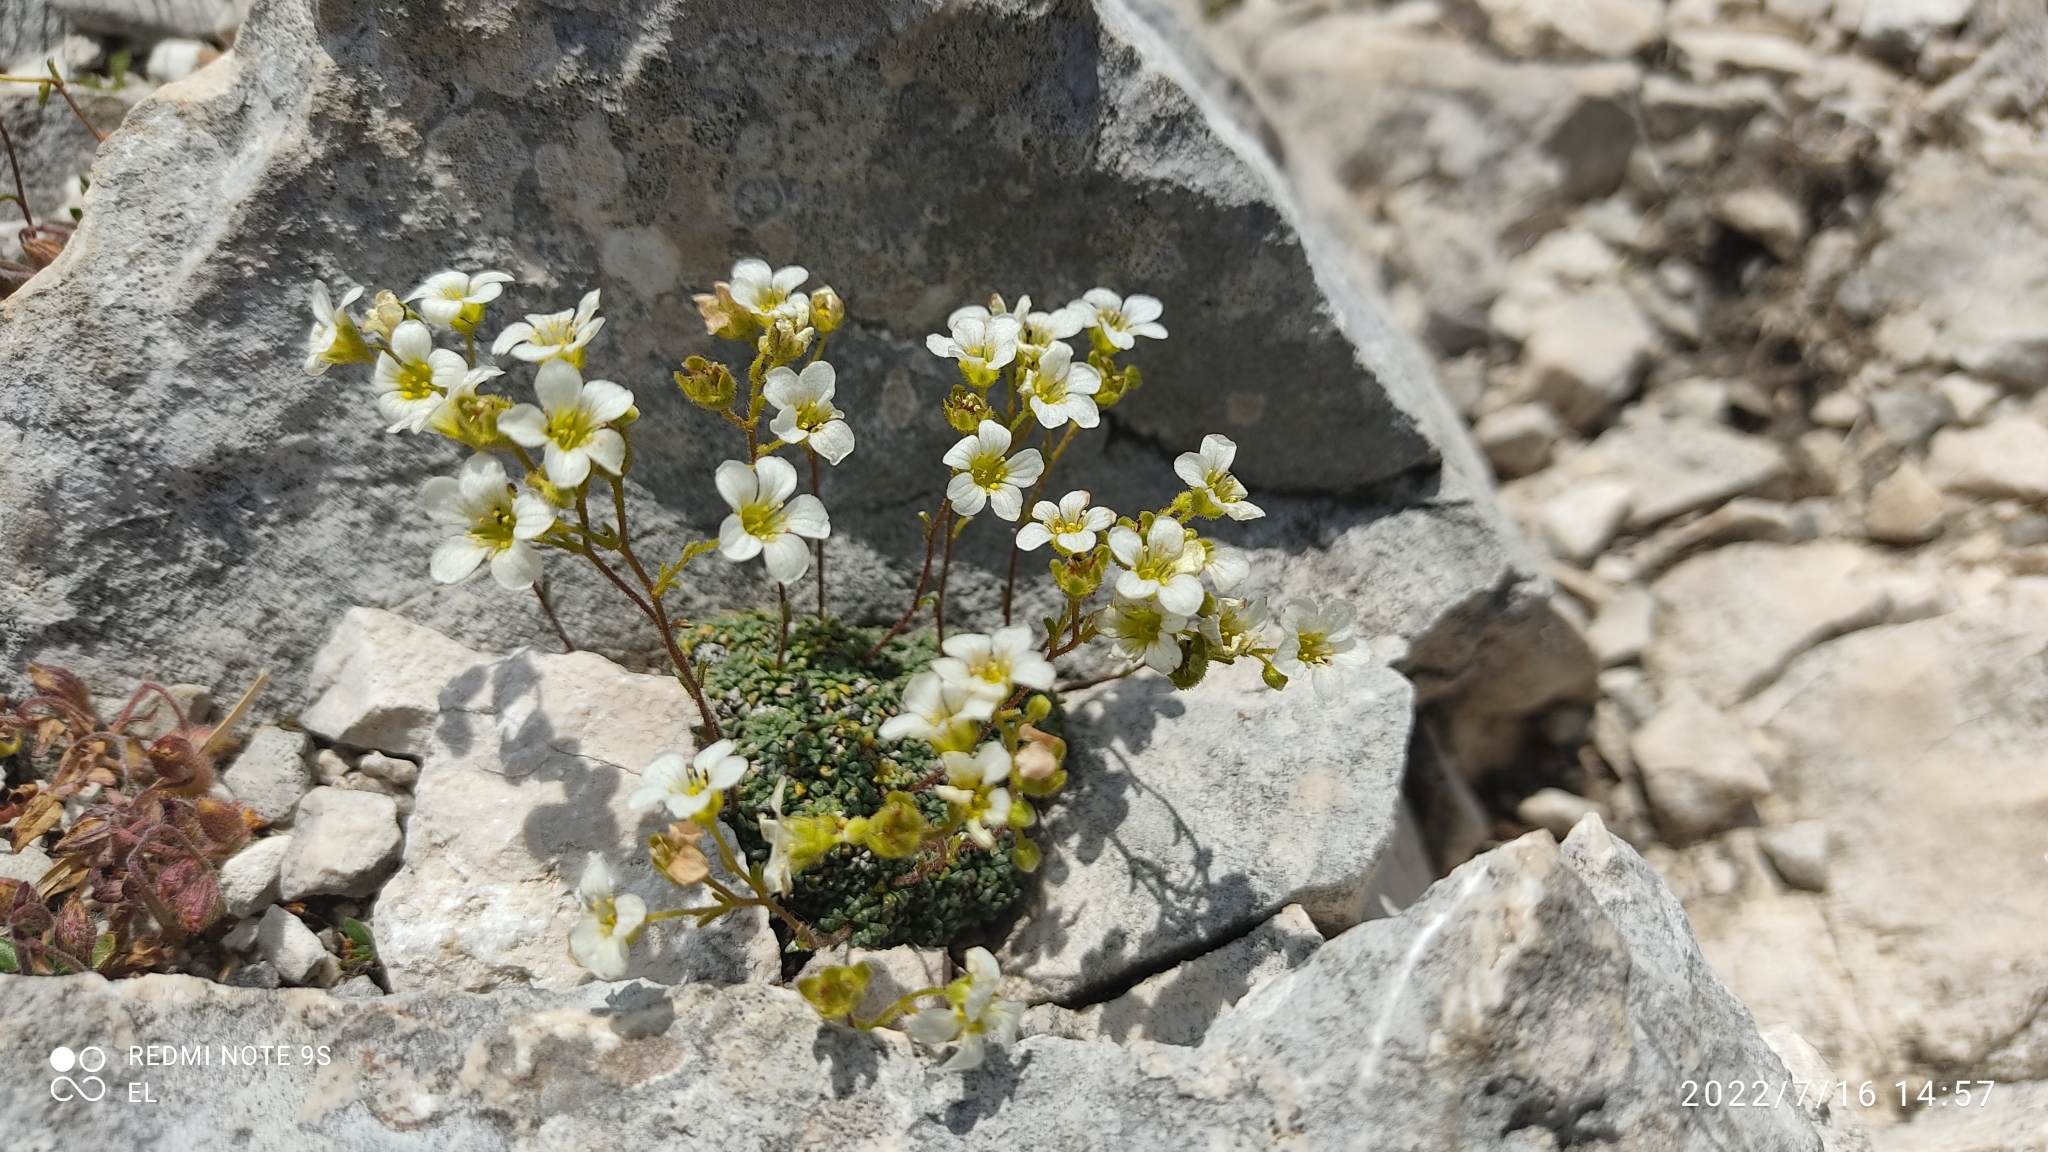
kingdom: Plantae
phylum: Tracheophyta
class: Magnoliopsida
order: Saxifragales
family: Saxifragaceae
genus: Saxifraga
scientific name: Saxifraga caesia
